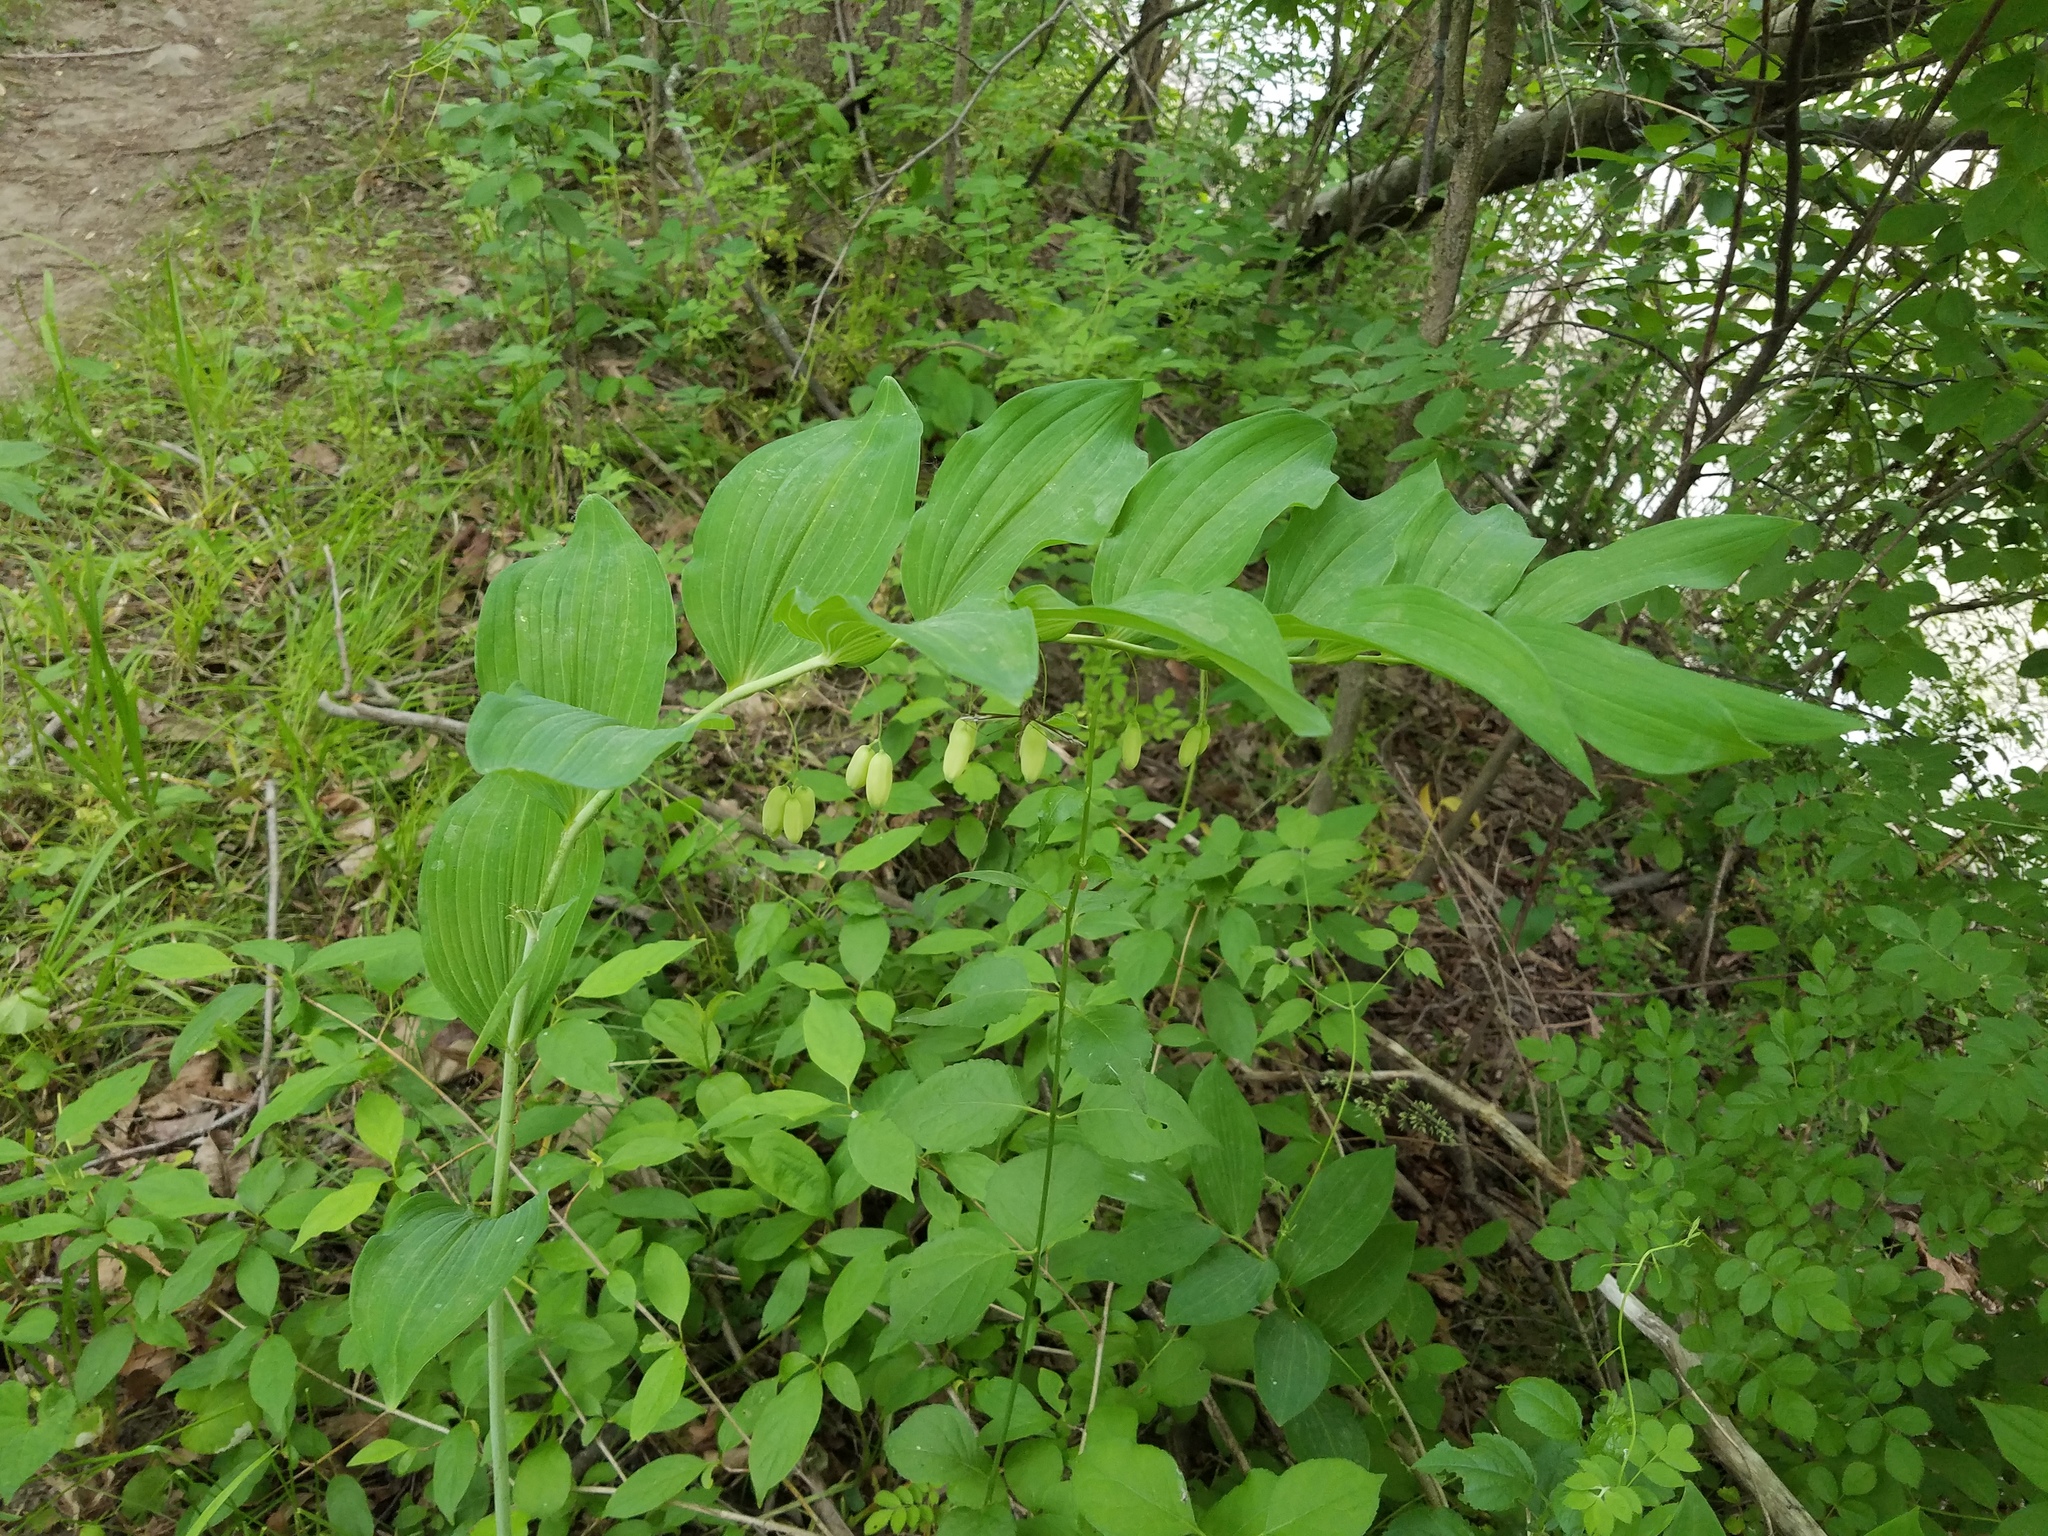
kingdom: Plantae
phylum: Tracheophyta
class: Liliopsida
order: Asparagales
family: Asparagaceae
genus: Polygonatum
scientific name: Polygonatum biflorum
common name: American solomon's-seal
